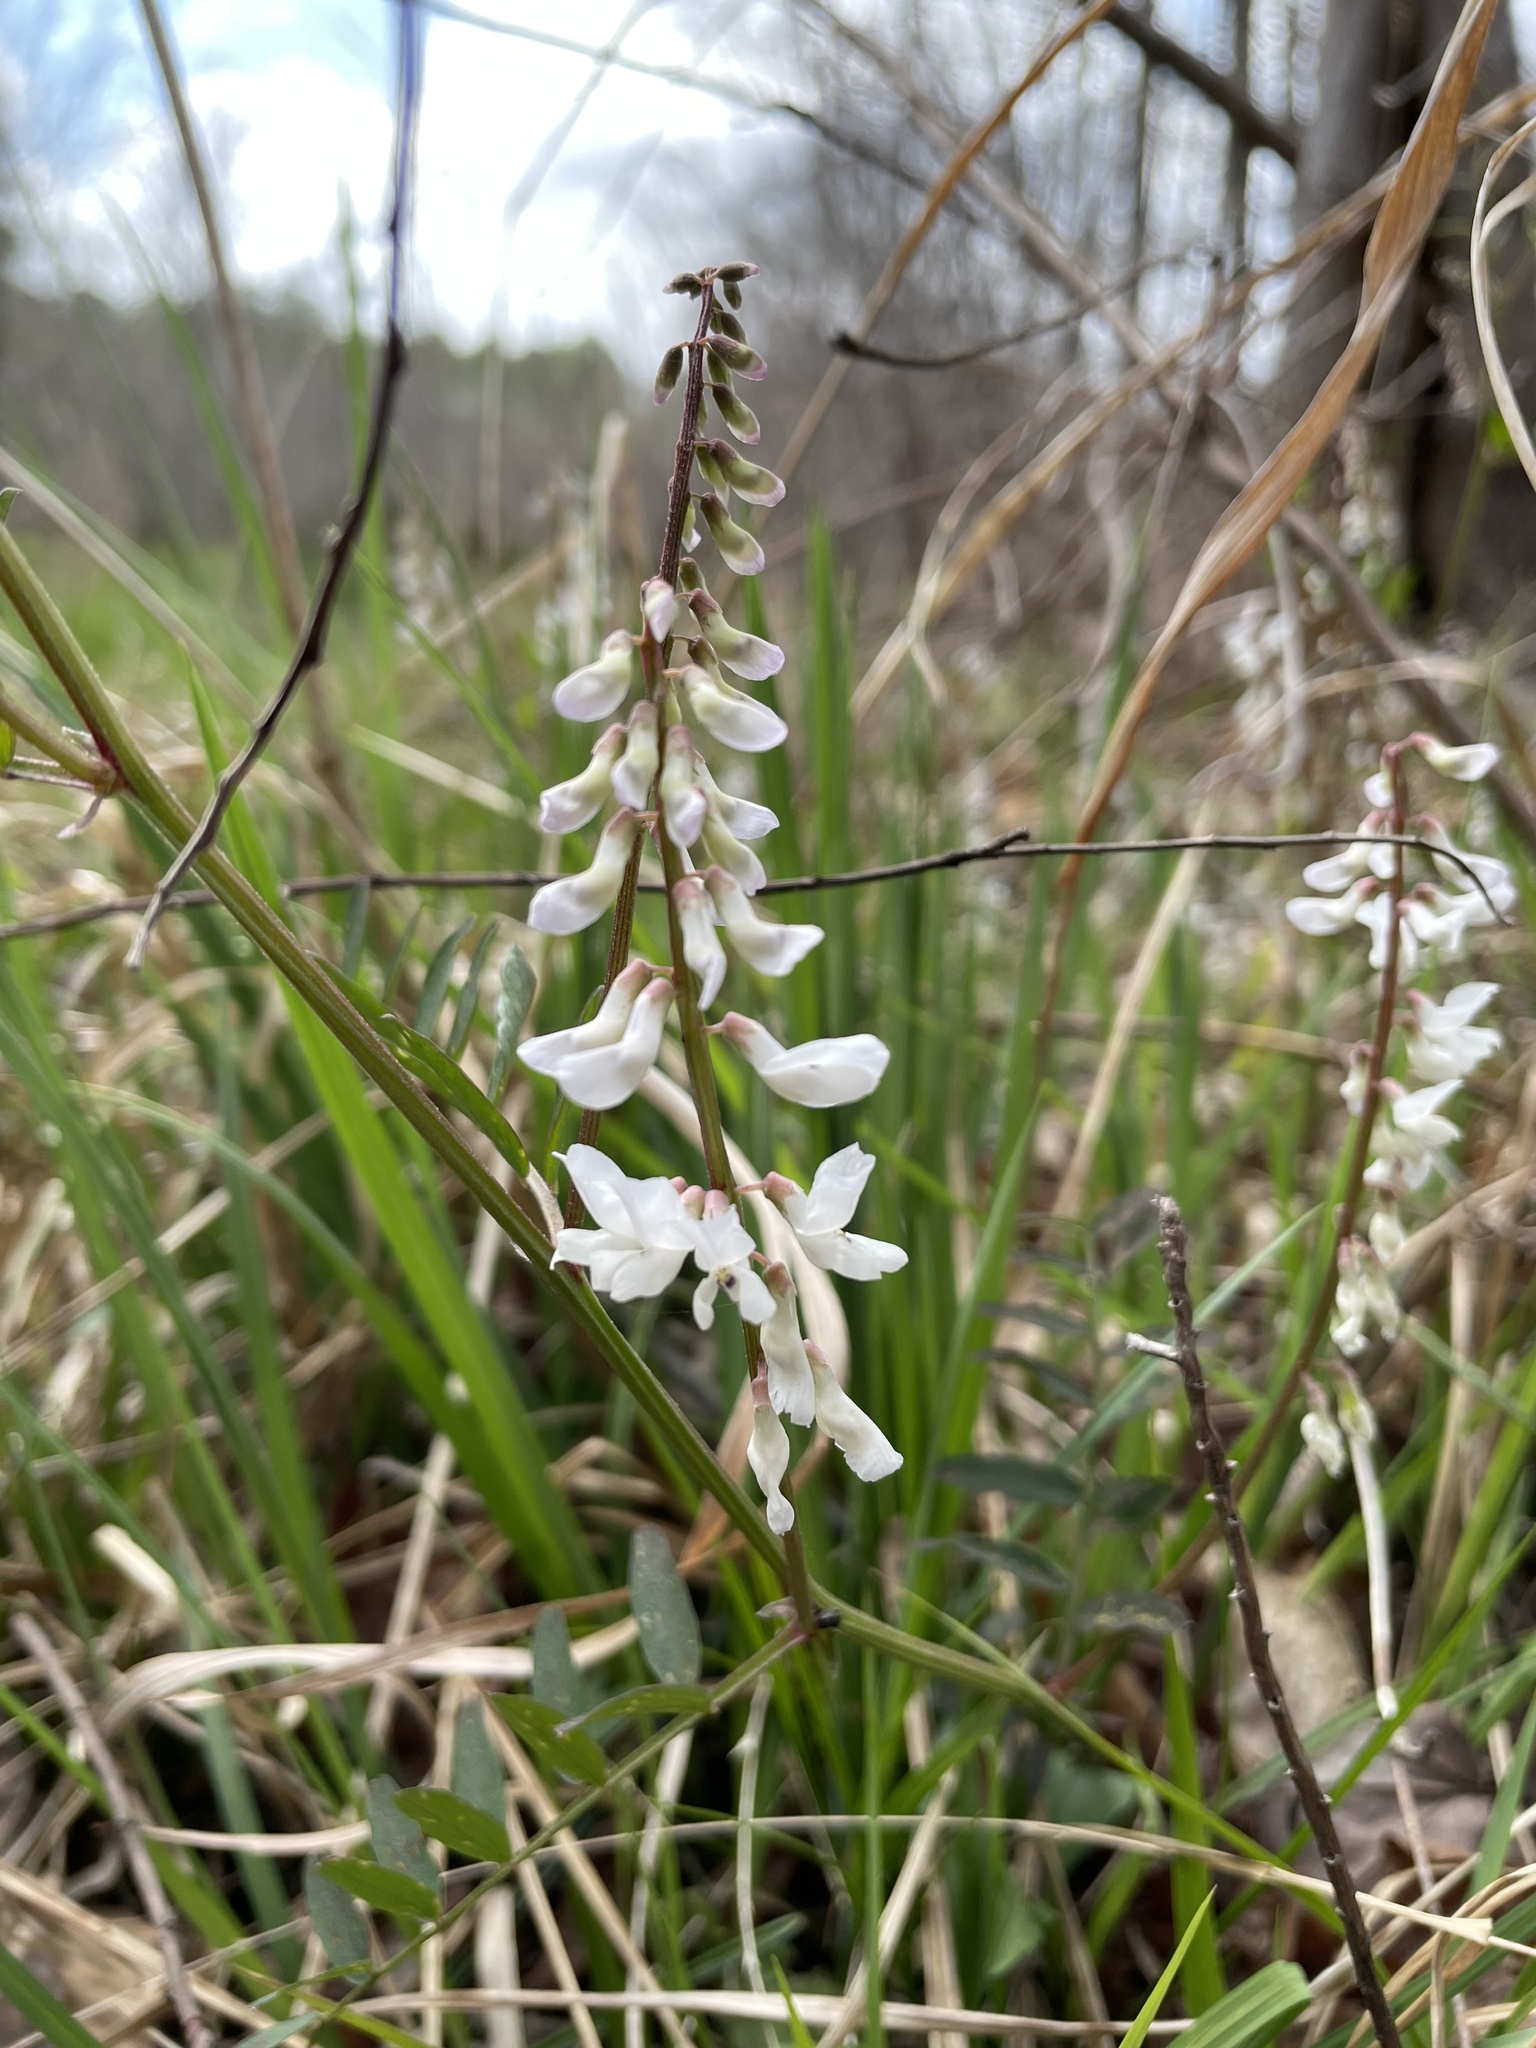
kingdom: Plantae
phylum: Tracheophyta
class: Magnoliopsida
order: Fabales
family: Fabaceae
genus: Vicia
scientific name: Vicia caroliniana
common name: Carolina vetch
